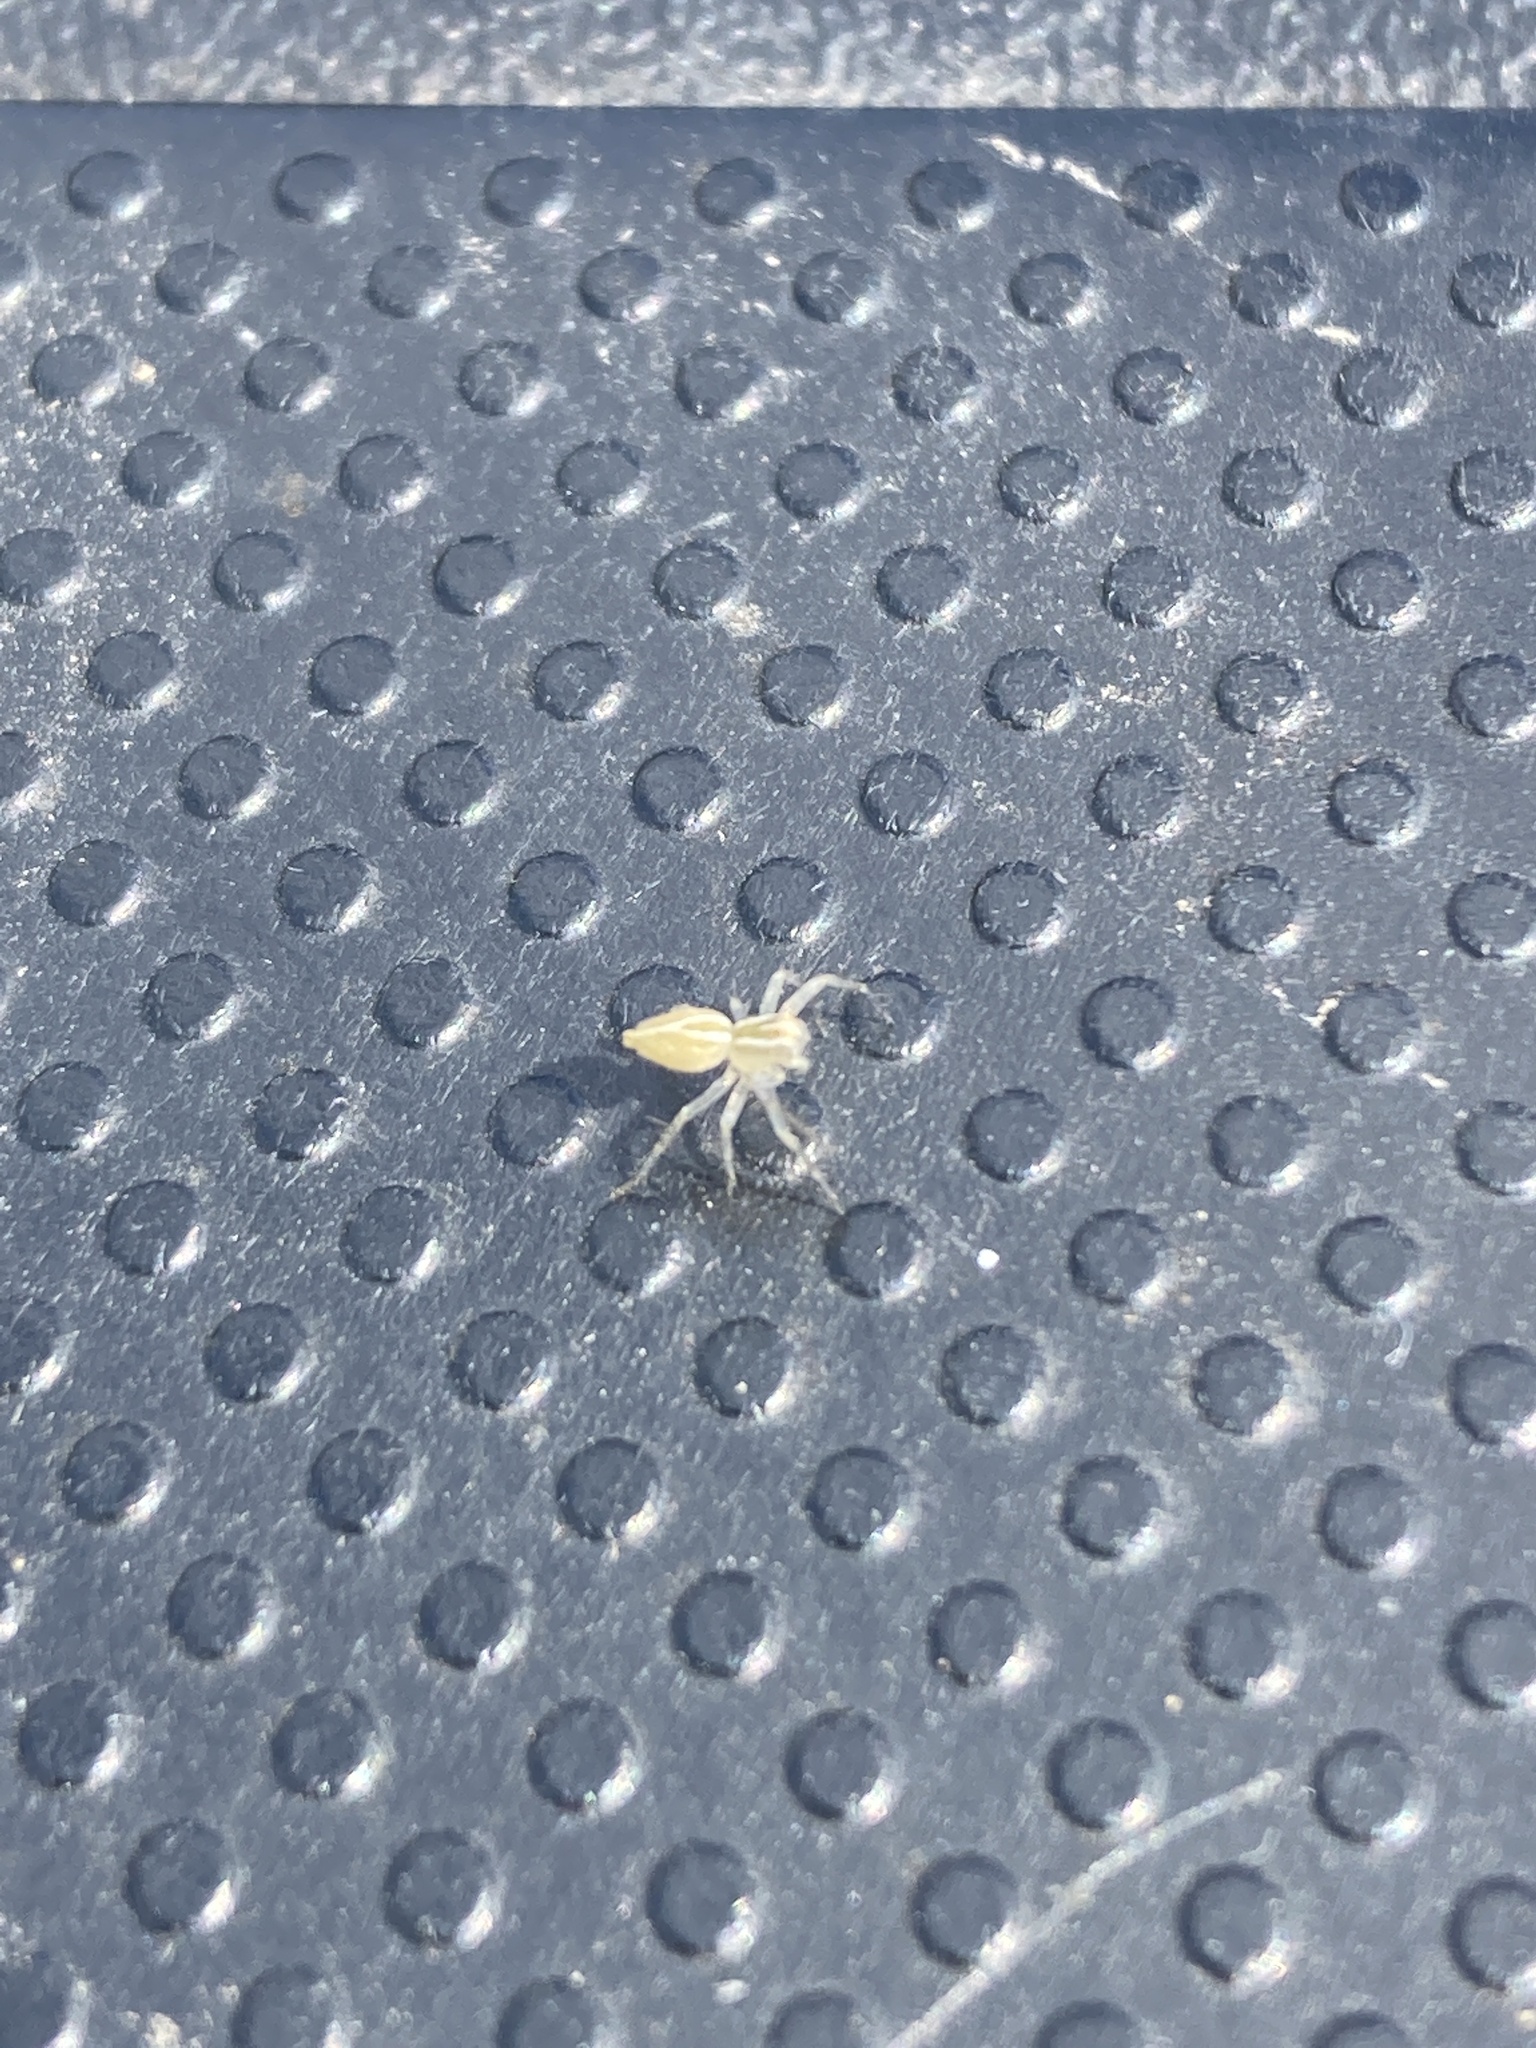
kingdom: Animalia
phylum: Arthropoda
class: Arachnida
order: Araneae
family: Oxyopidae
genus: Oxyopes
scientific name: Oxyopes salticus
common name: Lynx spiders
